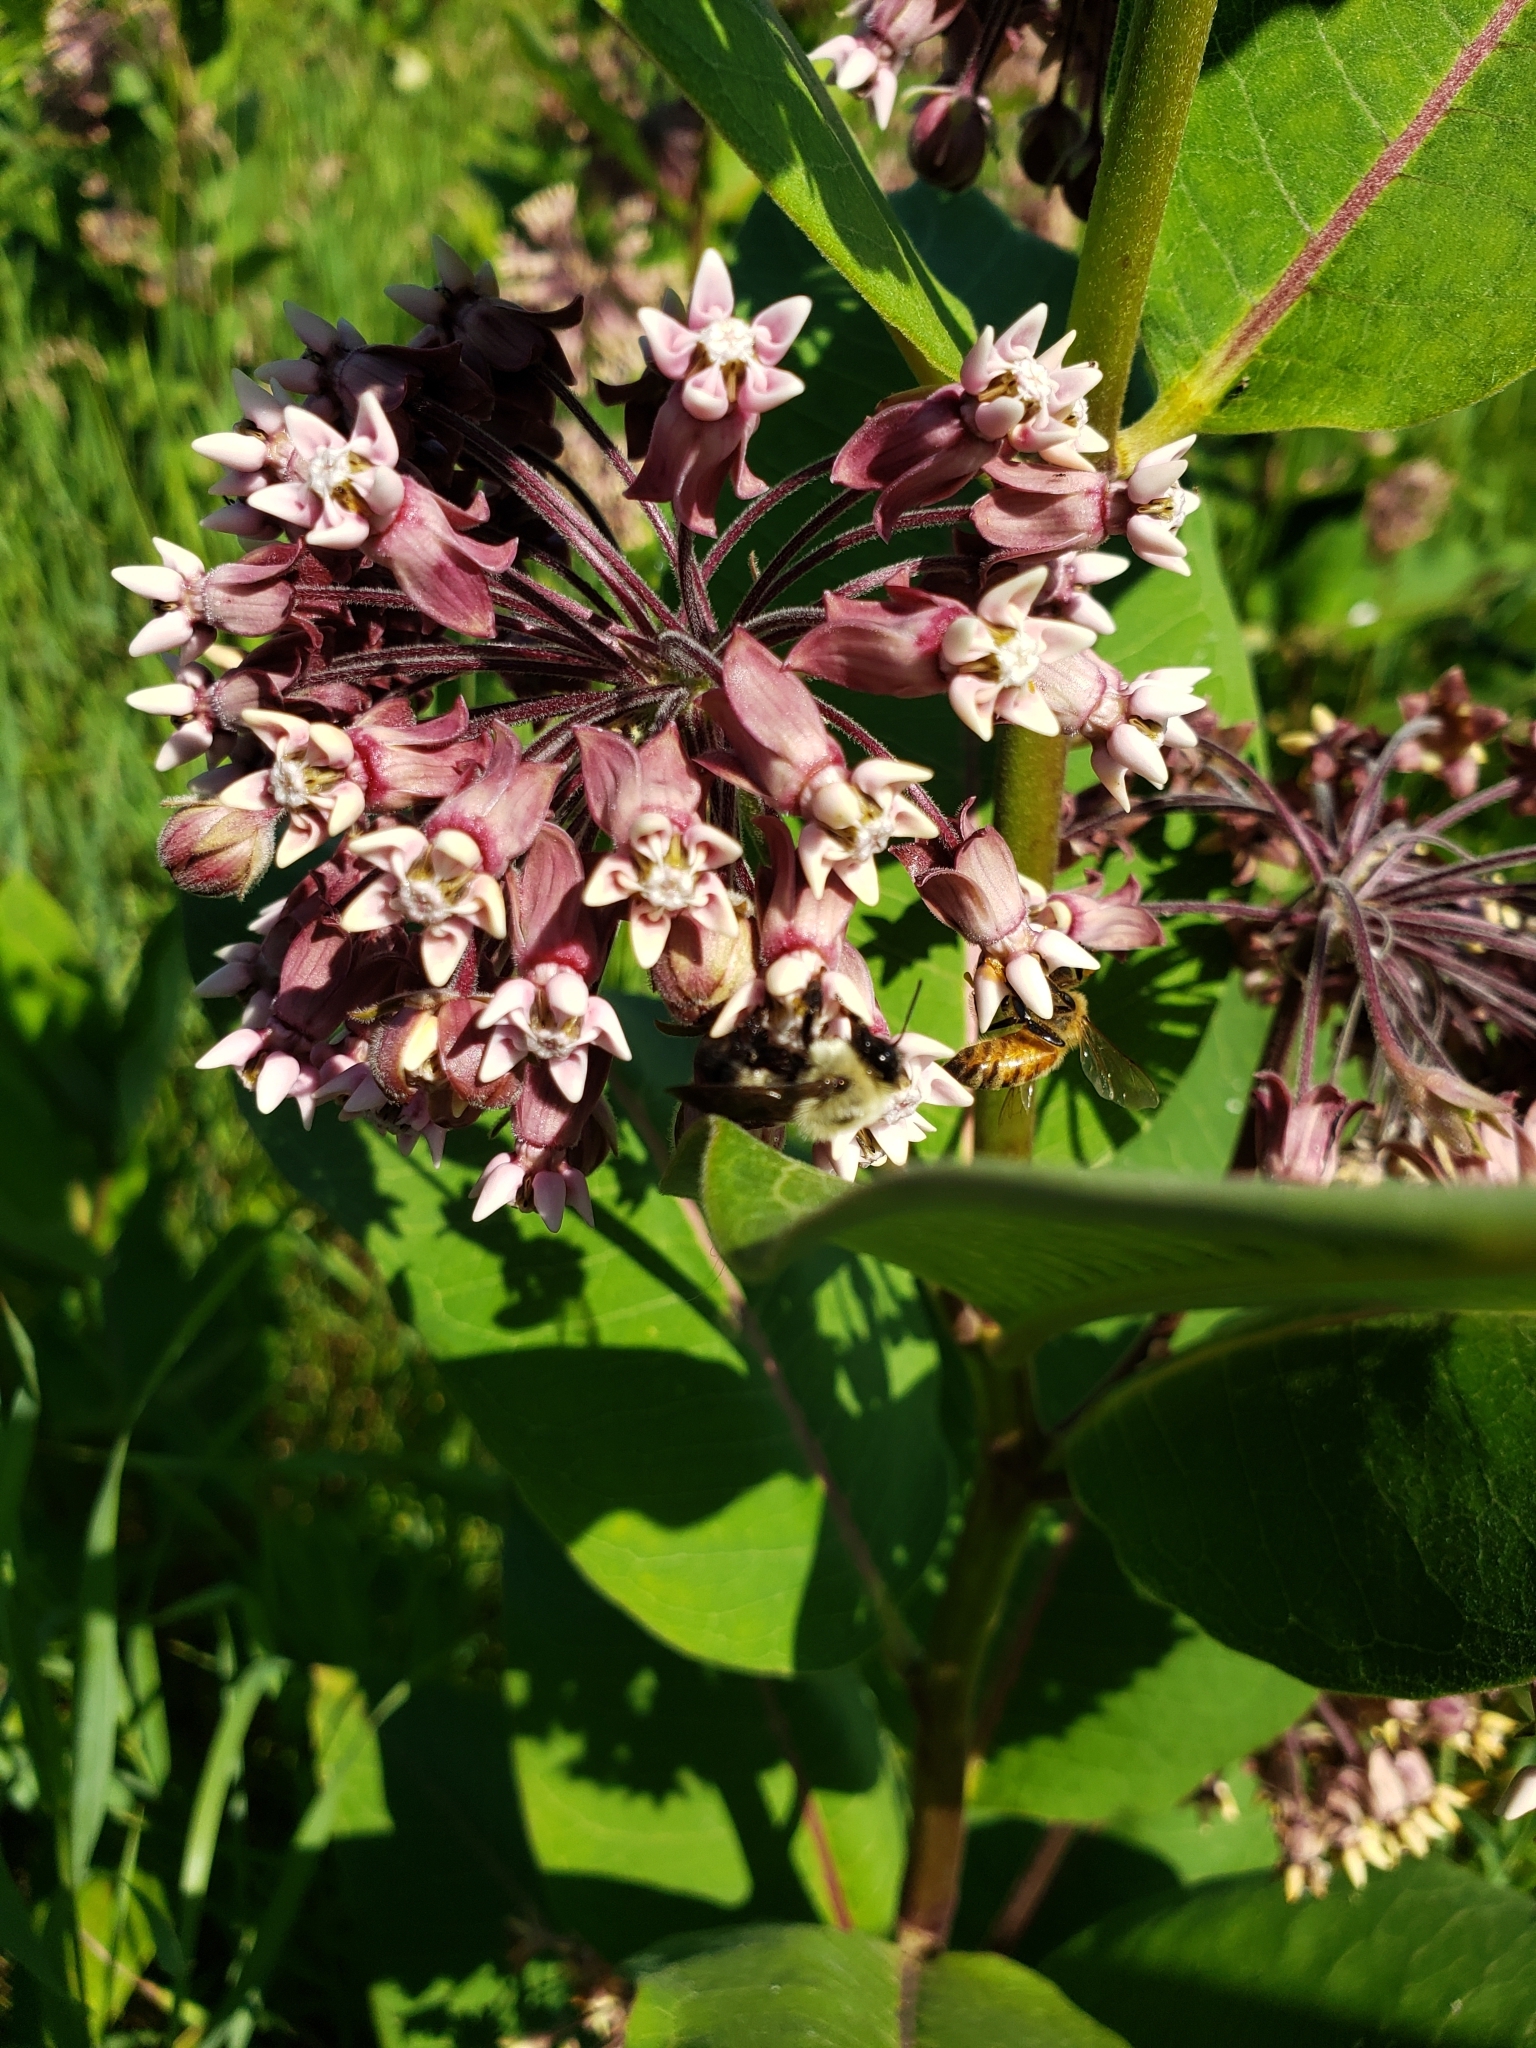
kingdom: Animalia
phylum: Arthropoda
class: Insecta
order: Hymenoptera
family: Apidae
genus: Bombus
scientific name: Bombus griseocollis
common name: Brown-belted bumble bee
